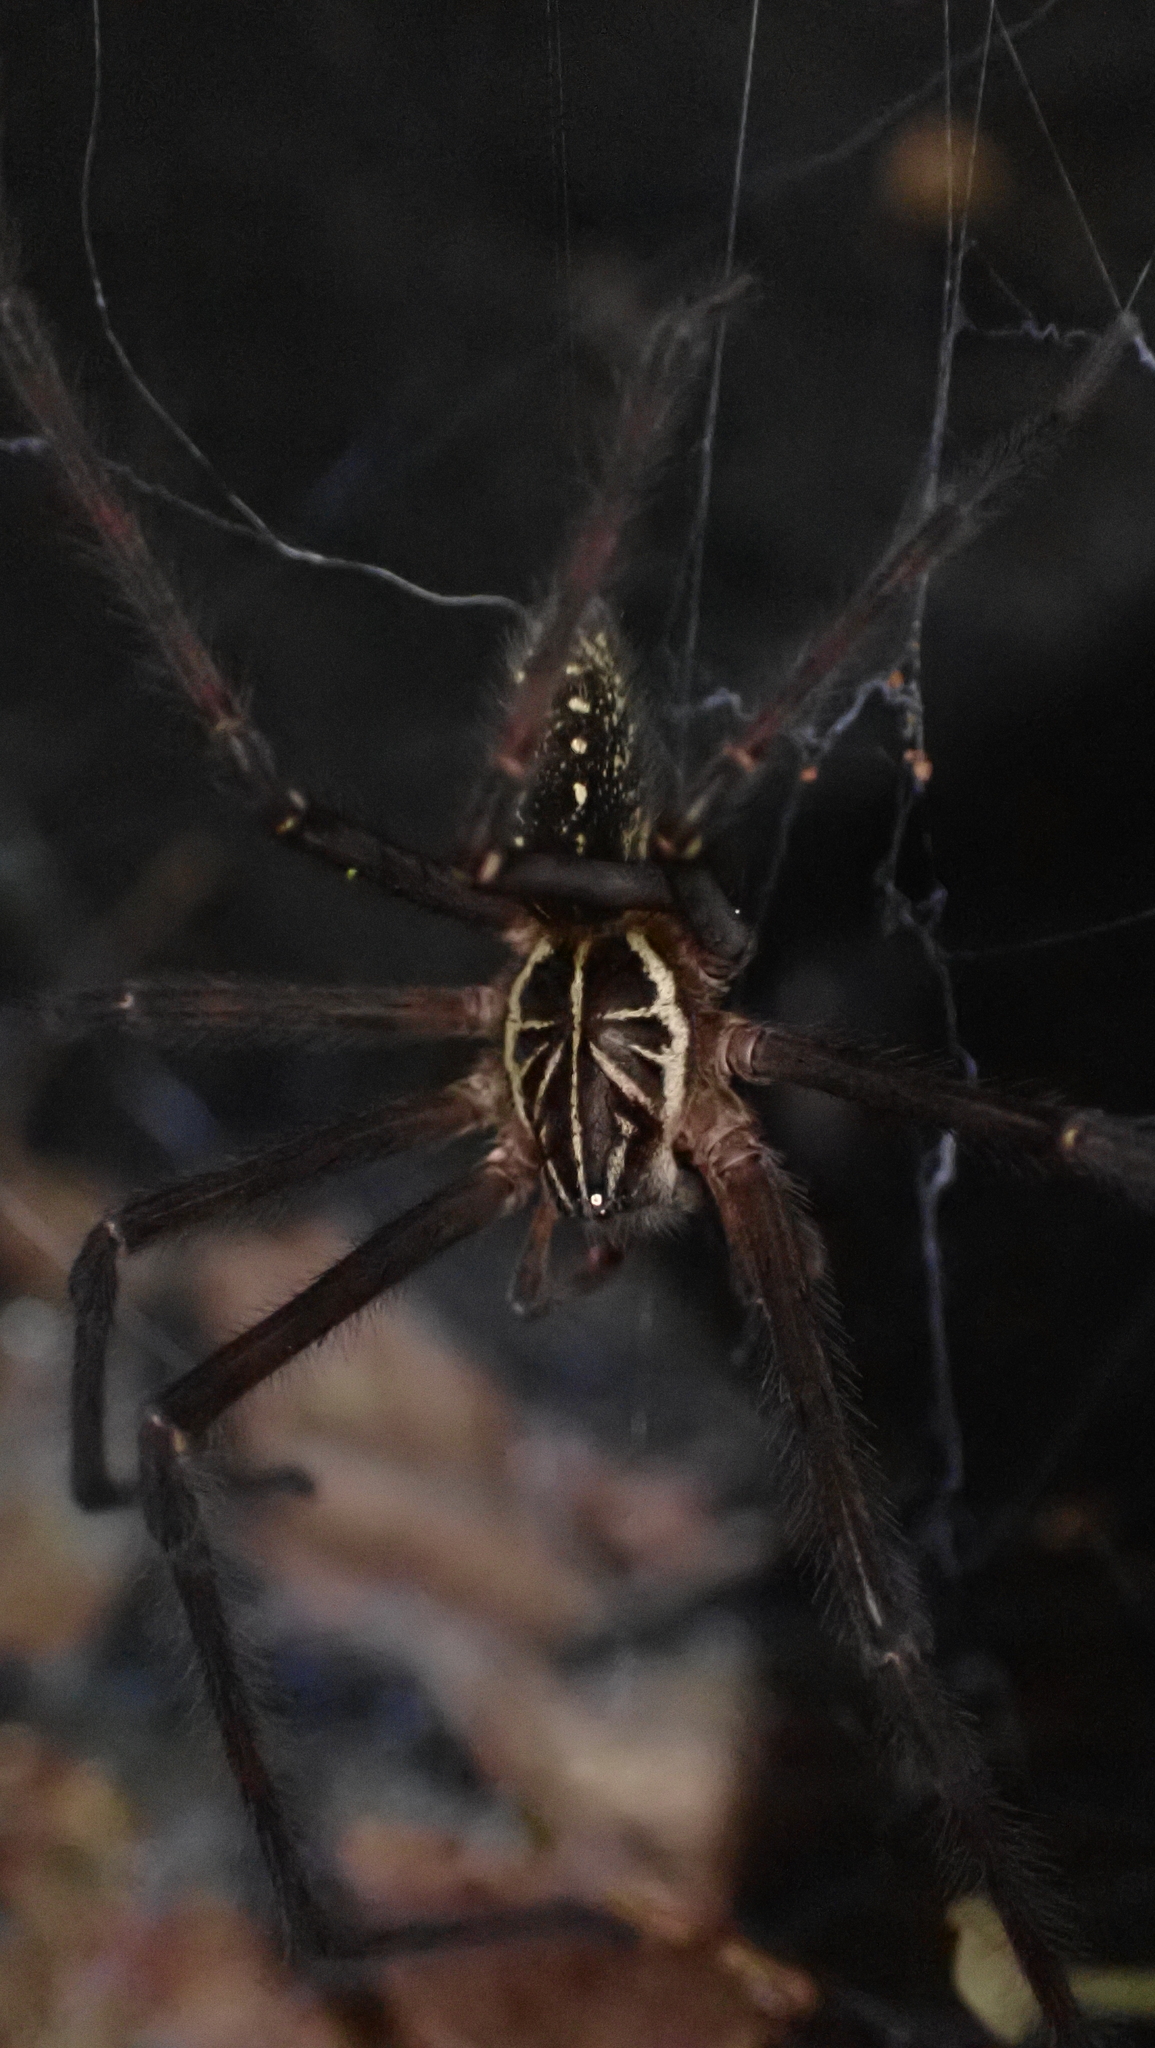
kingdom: Animalia
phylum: Arthropoda
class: Arachnida
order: Araneae
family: Zoropsidae
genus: Tengella
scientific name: Tengella radiata
